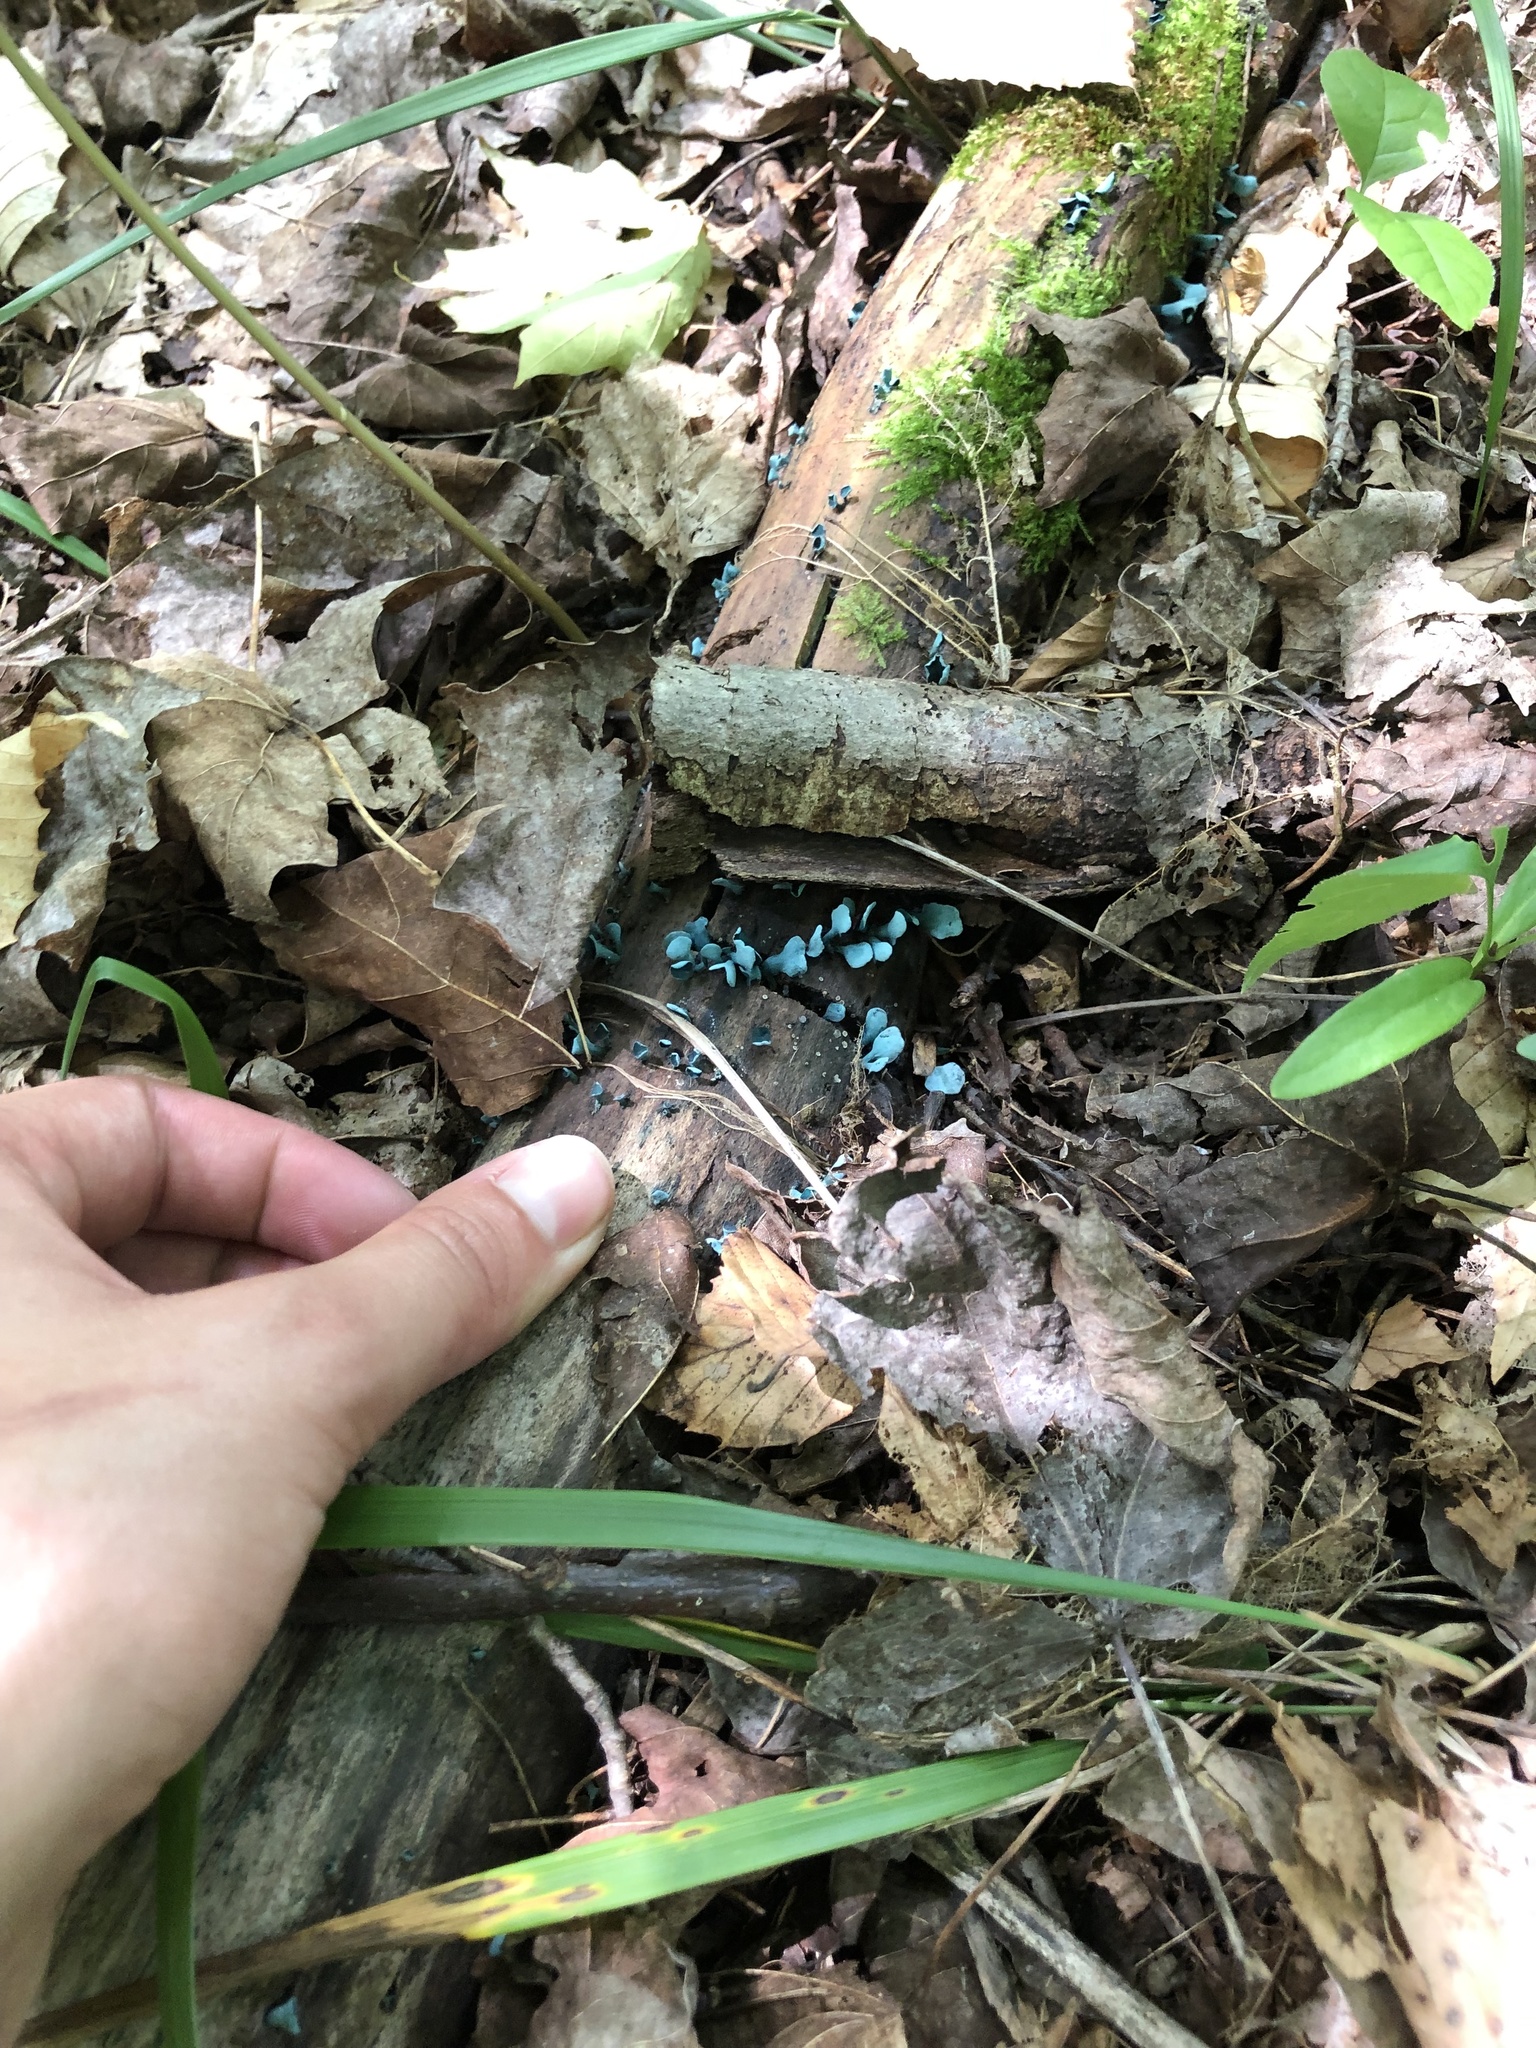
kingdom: Fungi
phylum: Ascomycota
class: Leotiomycetes
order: Helotiales
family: Chlorociboriaceae
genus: Chlorociboria
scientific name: Chlorociboria aeruginascens
